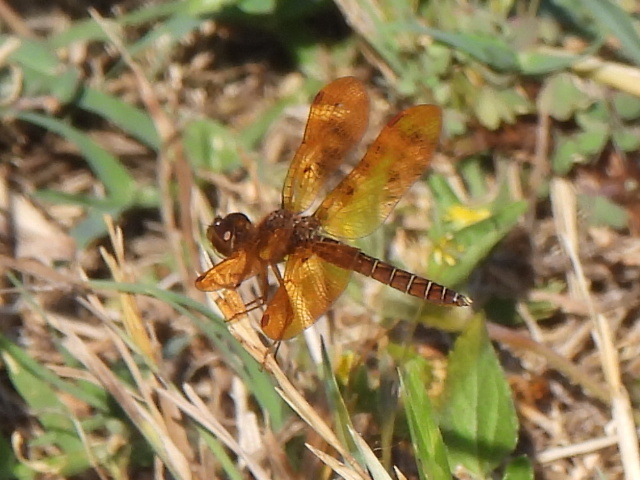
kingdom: Animalia
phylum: Arthropoda
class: Insecta
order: Odonata
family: Libellulidae
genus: Perithemis
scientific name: Perithemis tenera
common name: Eastern amberwing
